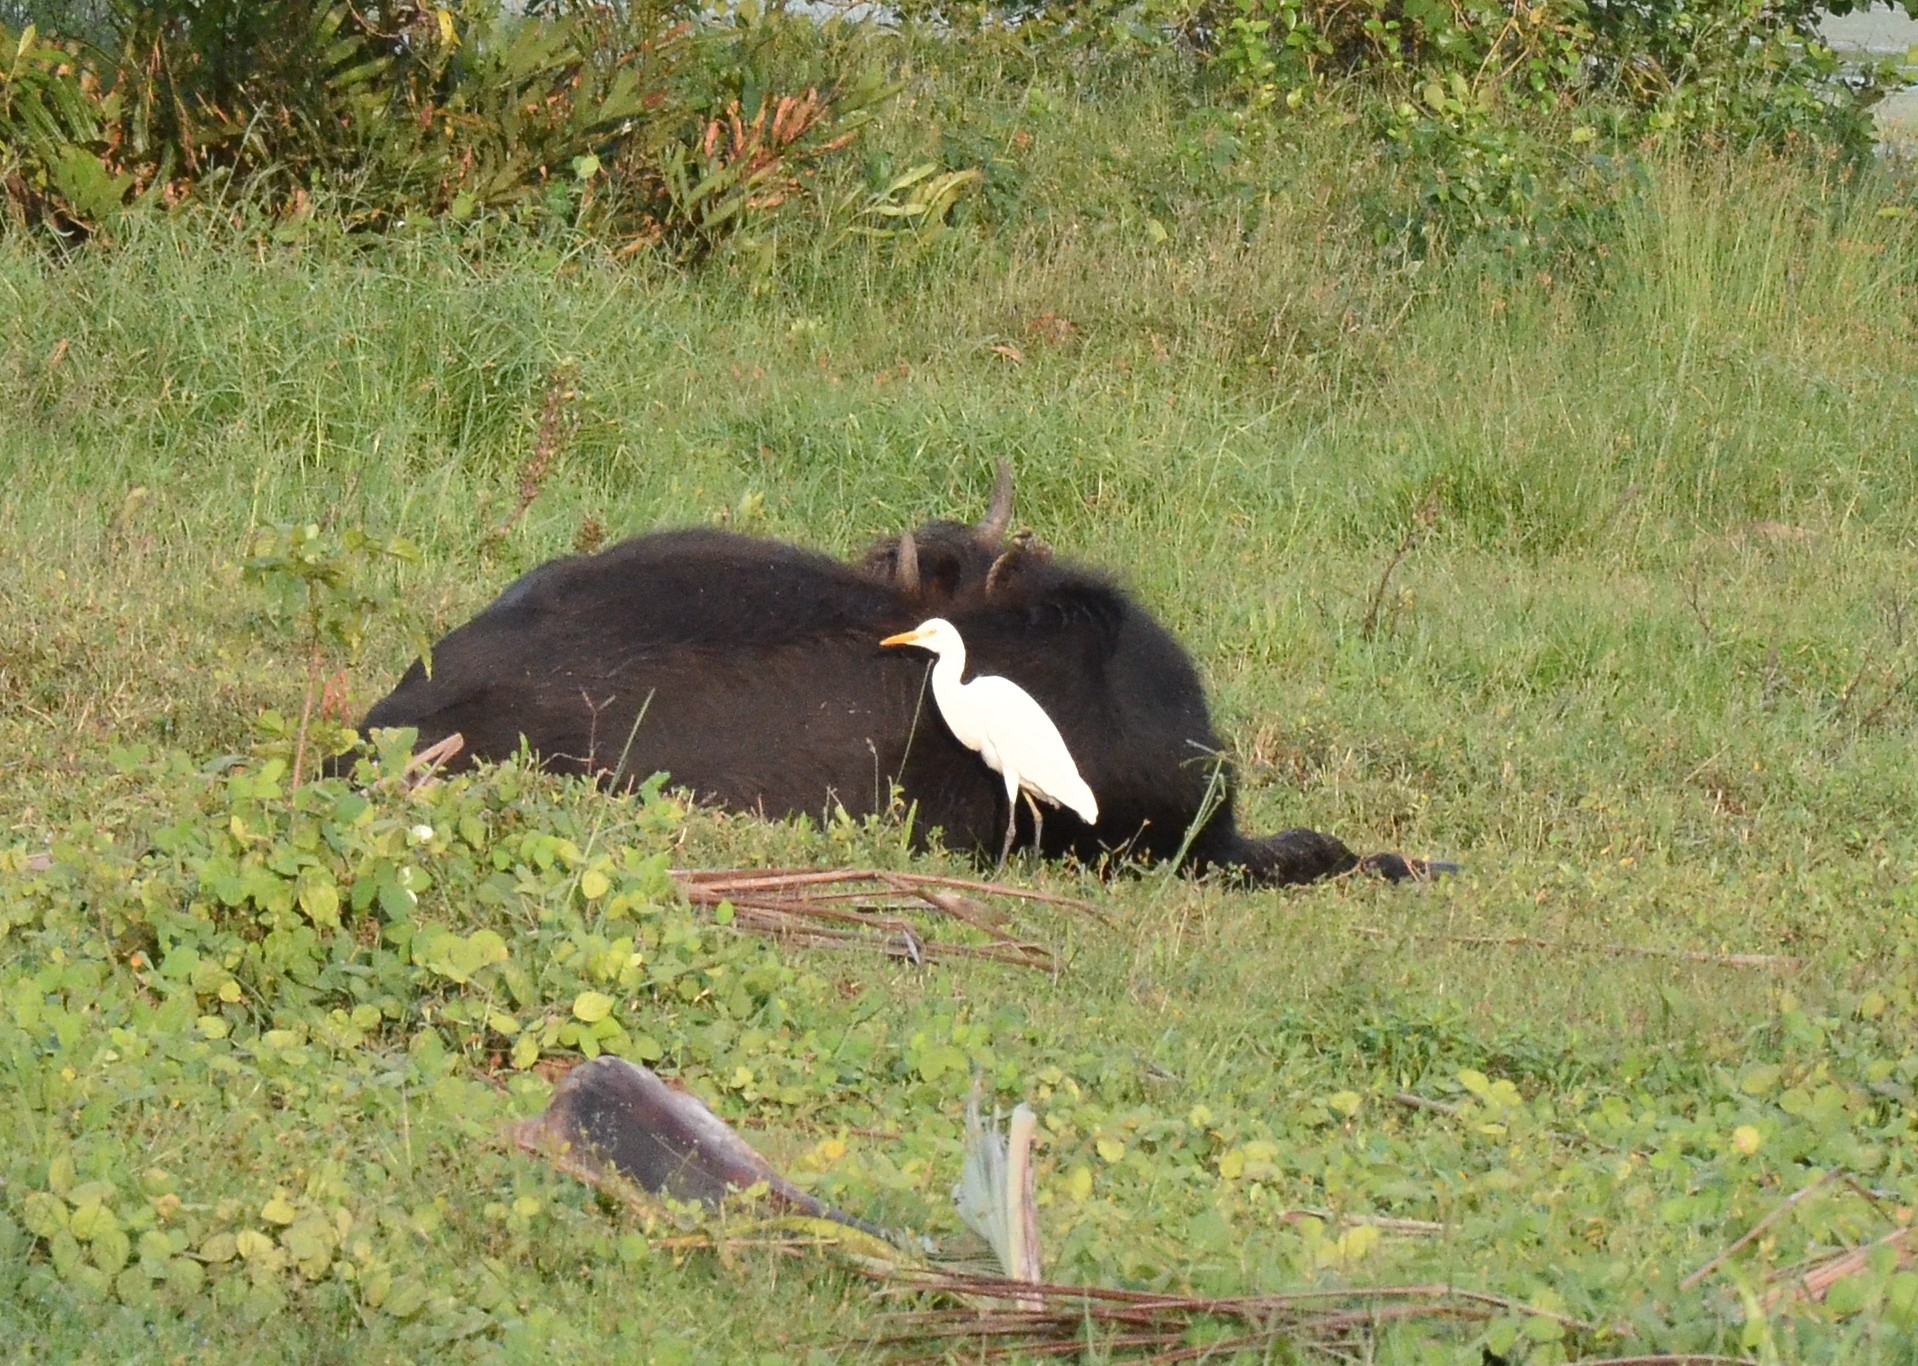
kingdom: Animalia
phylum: Chordata
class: Aves
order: Pelecaniformes
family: Ardeidae
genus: Bubulcus
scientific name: Bubulcus coromandus
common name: Eastern cattle egret
